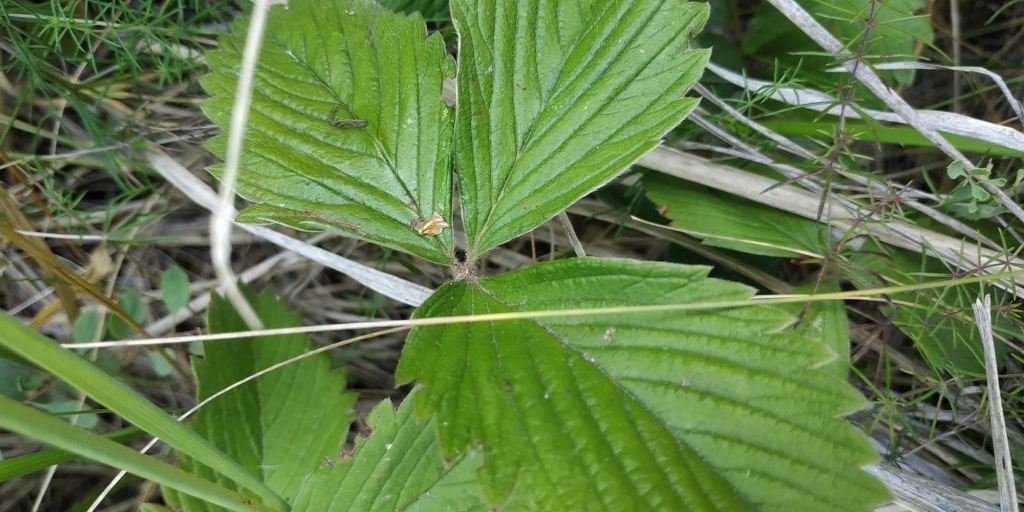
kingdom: Plantae
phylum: Tracheophyta
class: Magnoliopsida
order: Rosales
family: Rosaceae
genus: Fragaria
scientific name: Fragaria viridis
